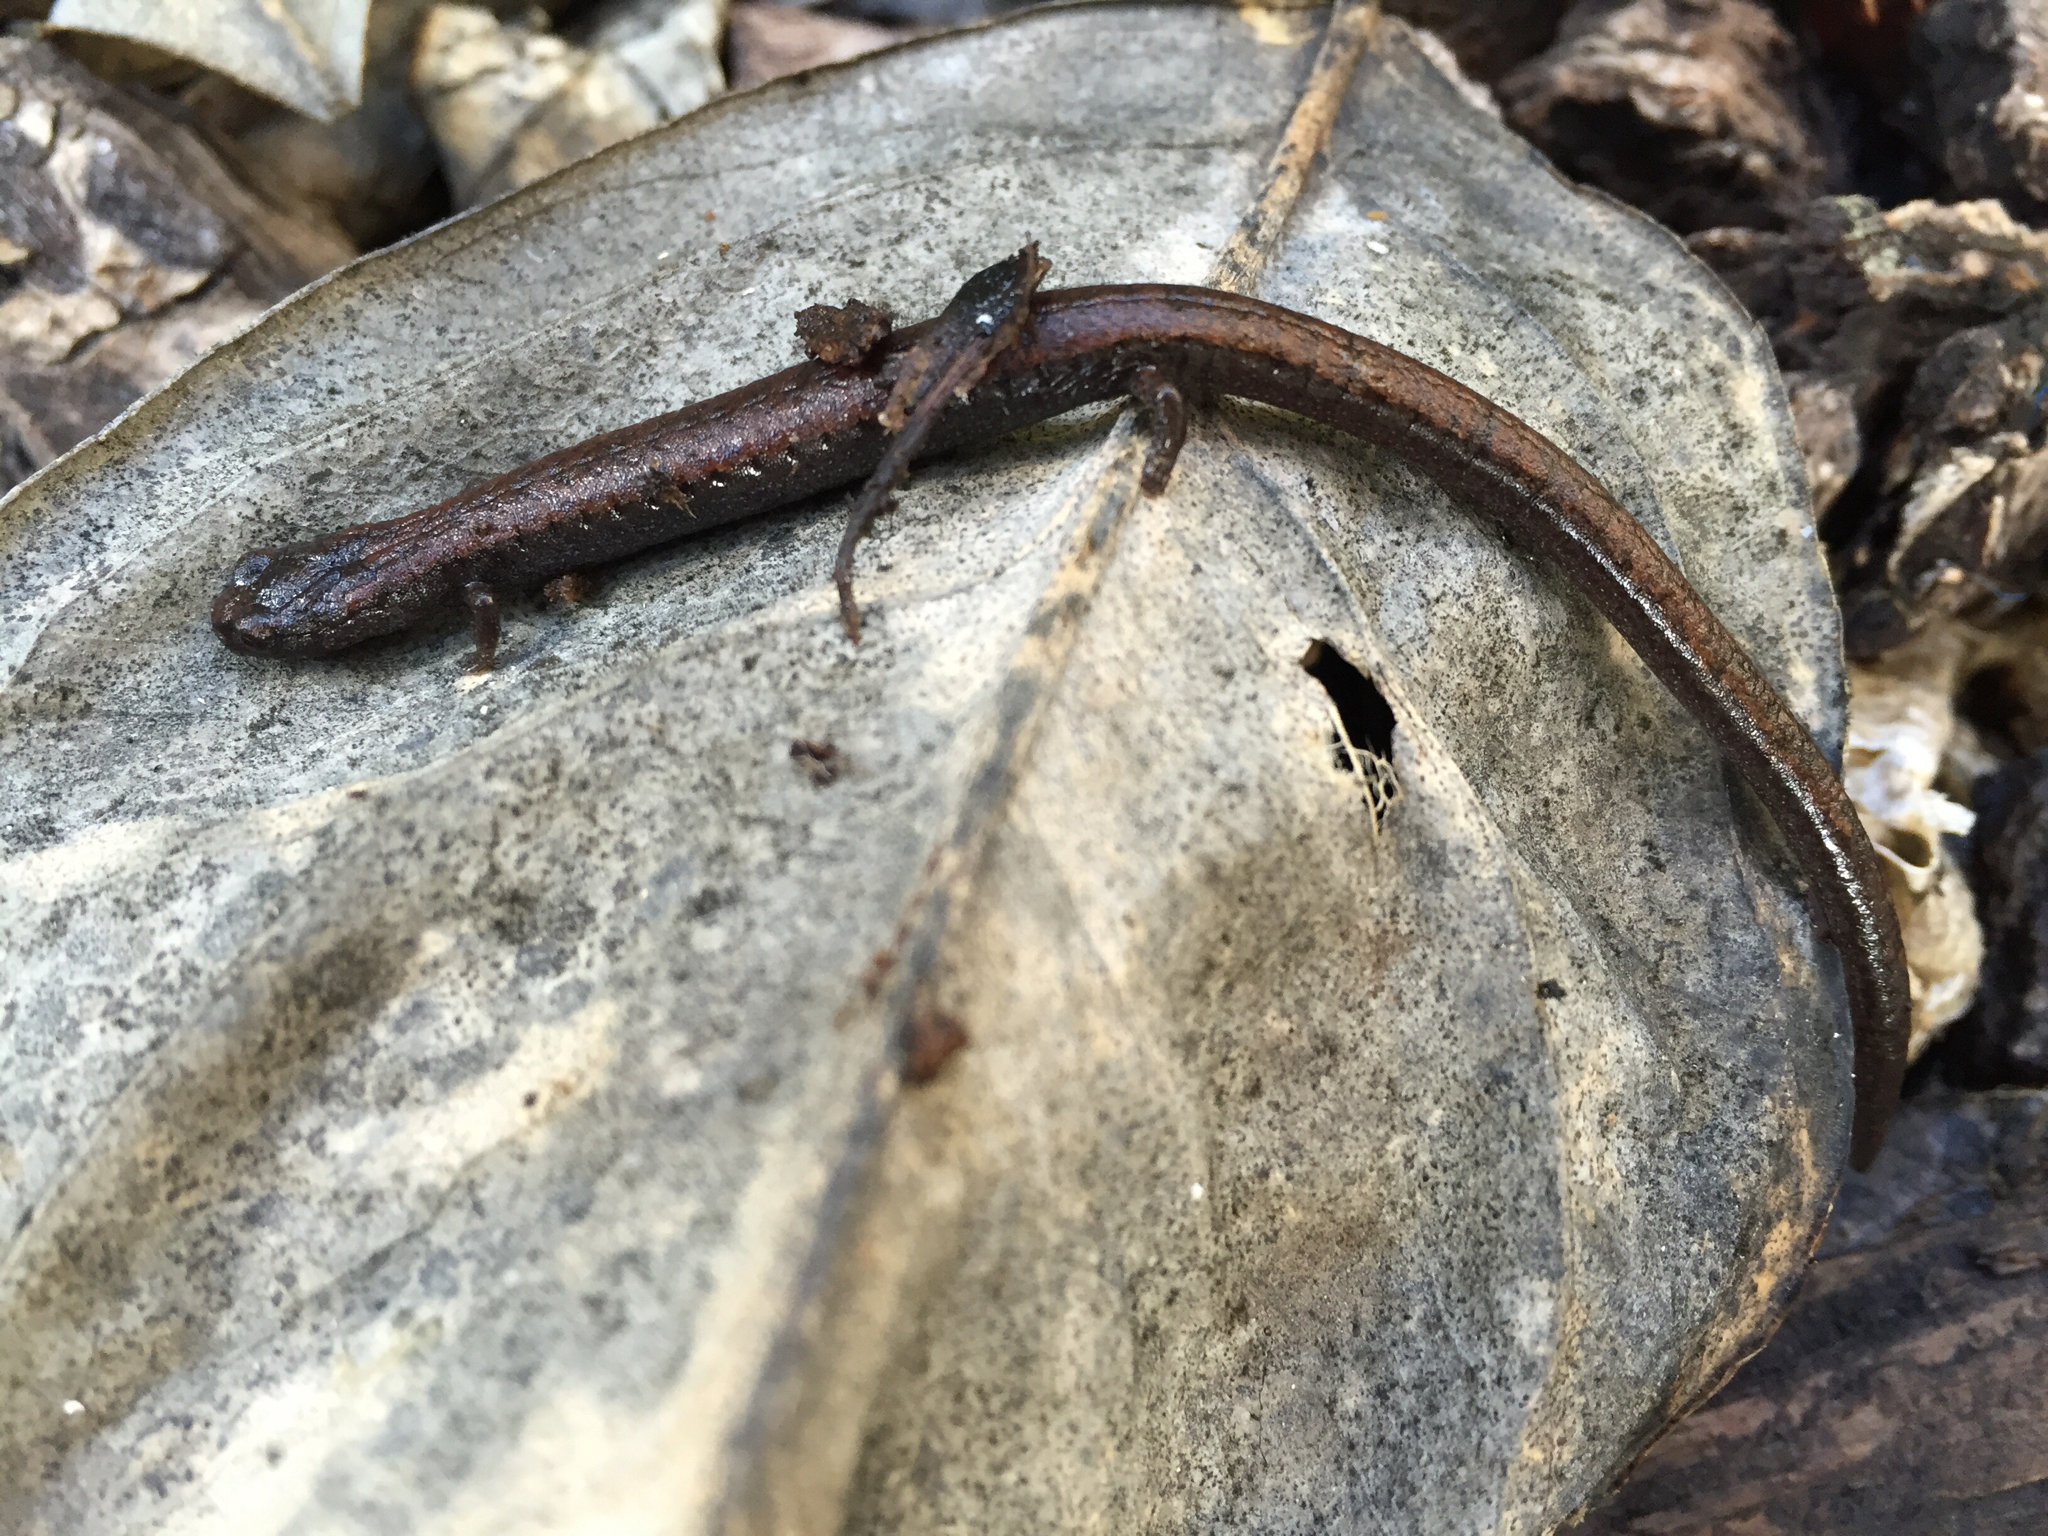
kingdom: Animalia
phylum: Chordata
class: Amphibia
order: Caudata
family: Plethodontidae
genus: Batrachoseps
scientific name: Batrachoseps attenuatus
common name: California slender salamander
